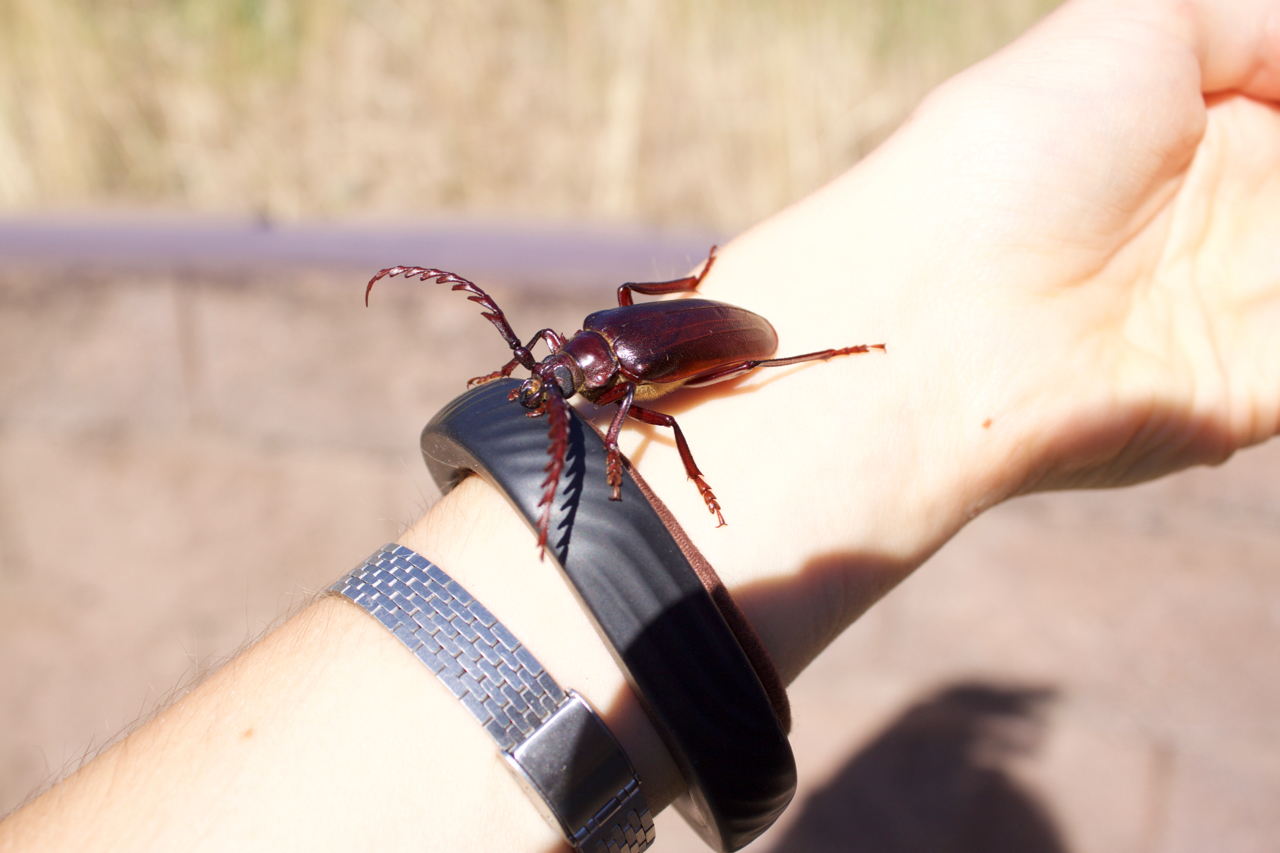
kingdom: Animalia
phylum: Arthropoda
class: Insecta
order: Coleoptera
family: Cerambycidae
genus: Prionus
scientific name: Prionus californicus
